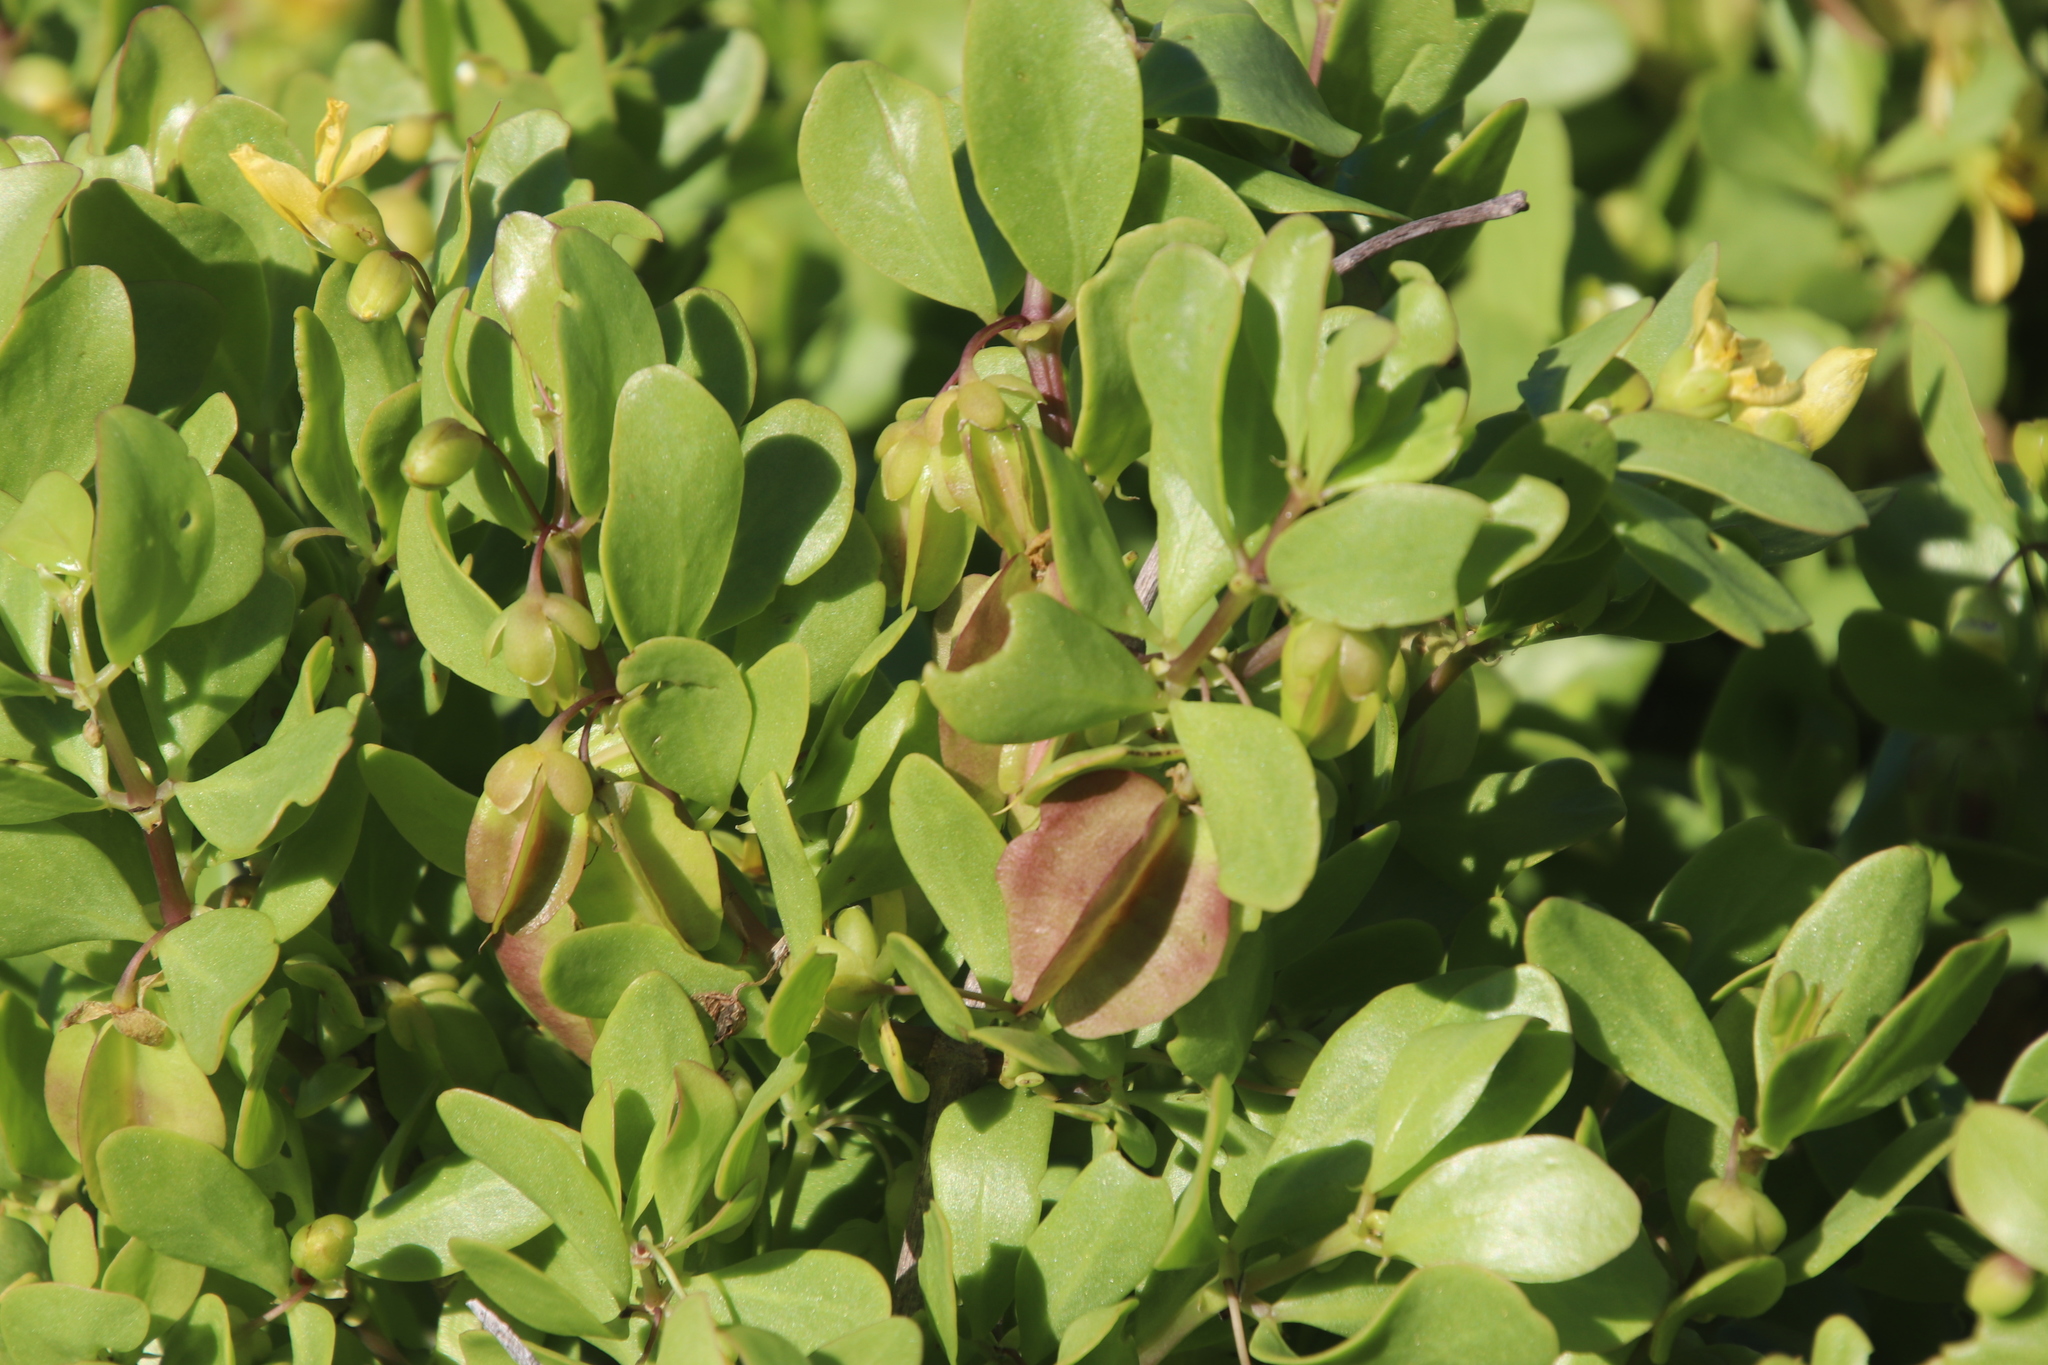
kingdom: Plantae
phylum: Tracheophyta
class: Magnoliopsida
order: Zygophyllales
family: Zygophyllaceae
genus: Roepera
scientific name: Roepera morgsana
